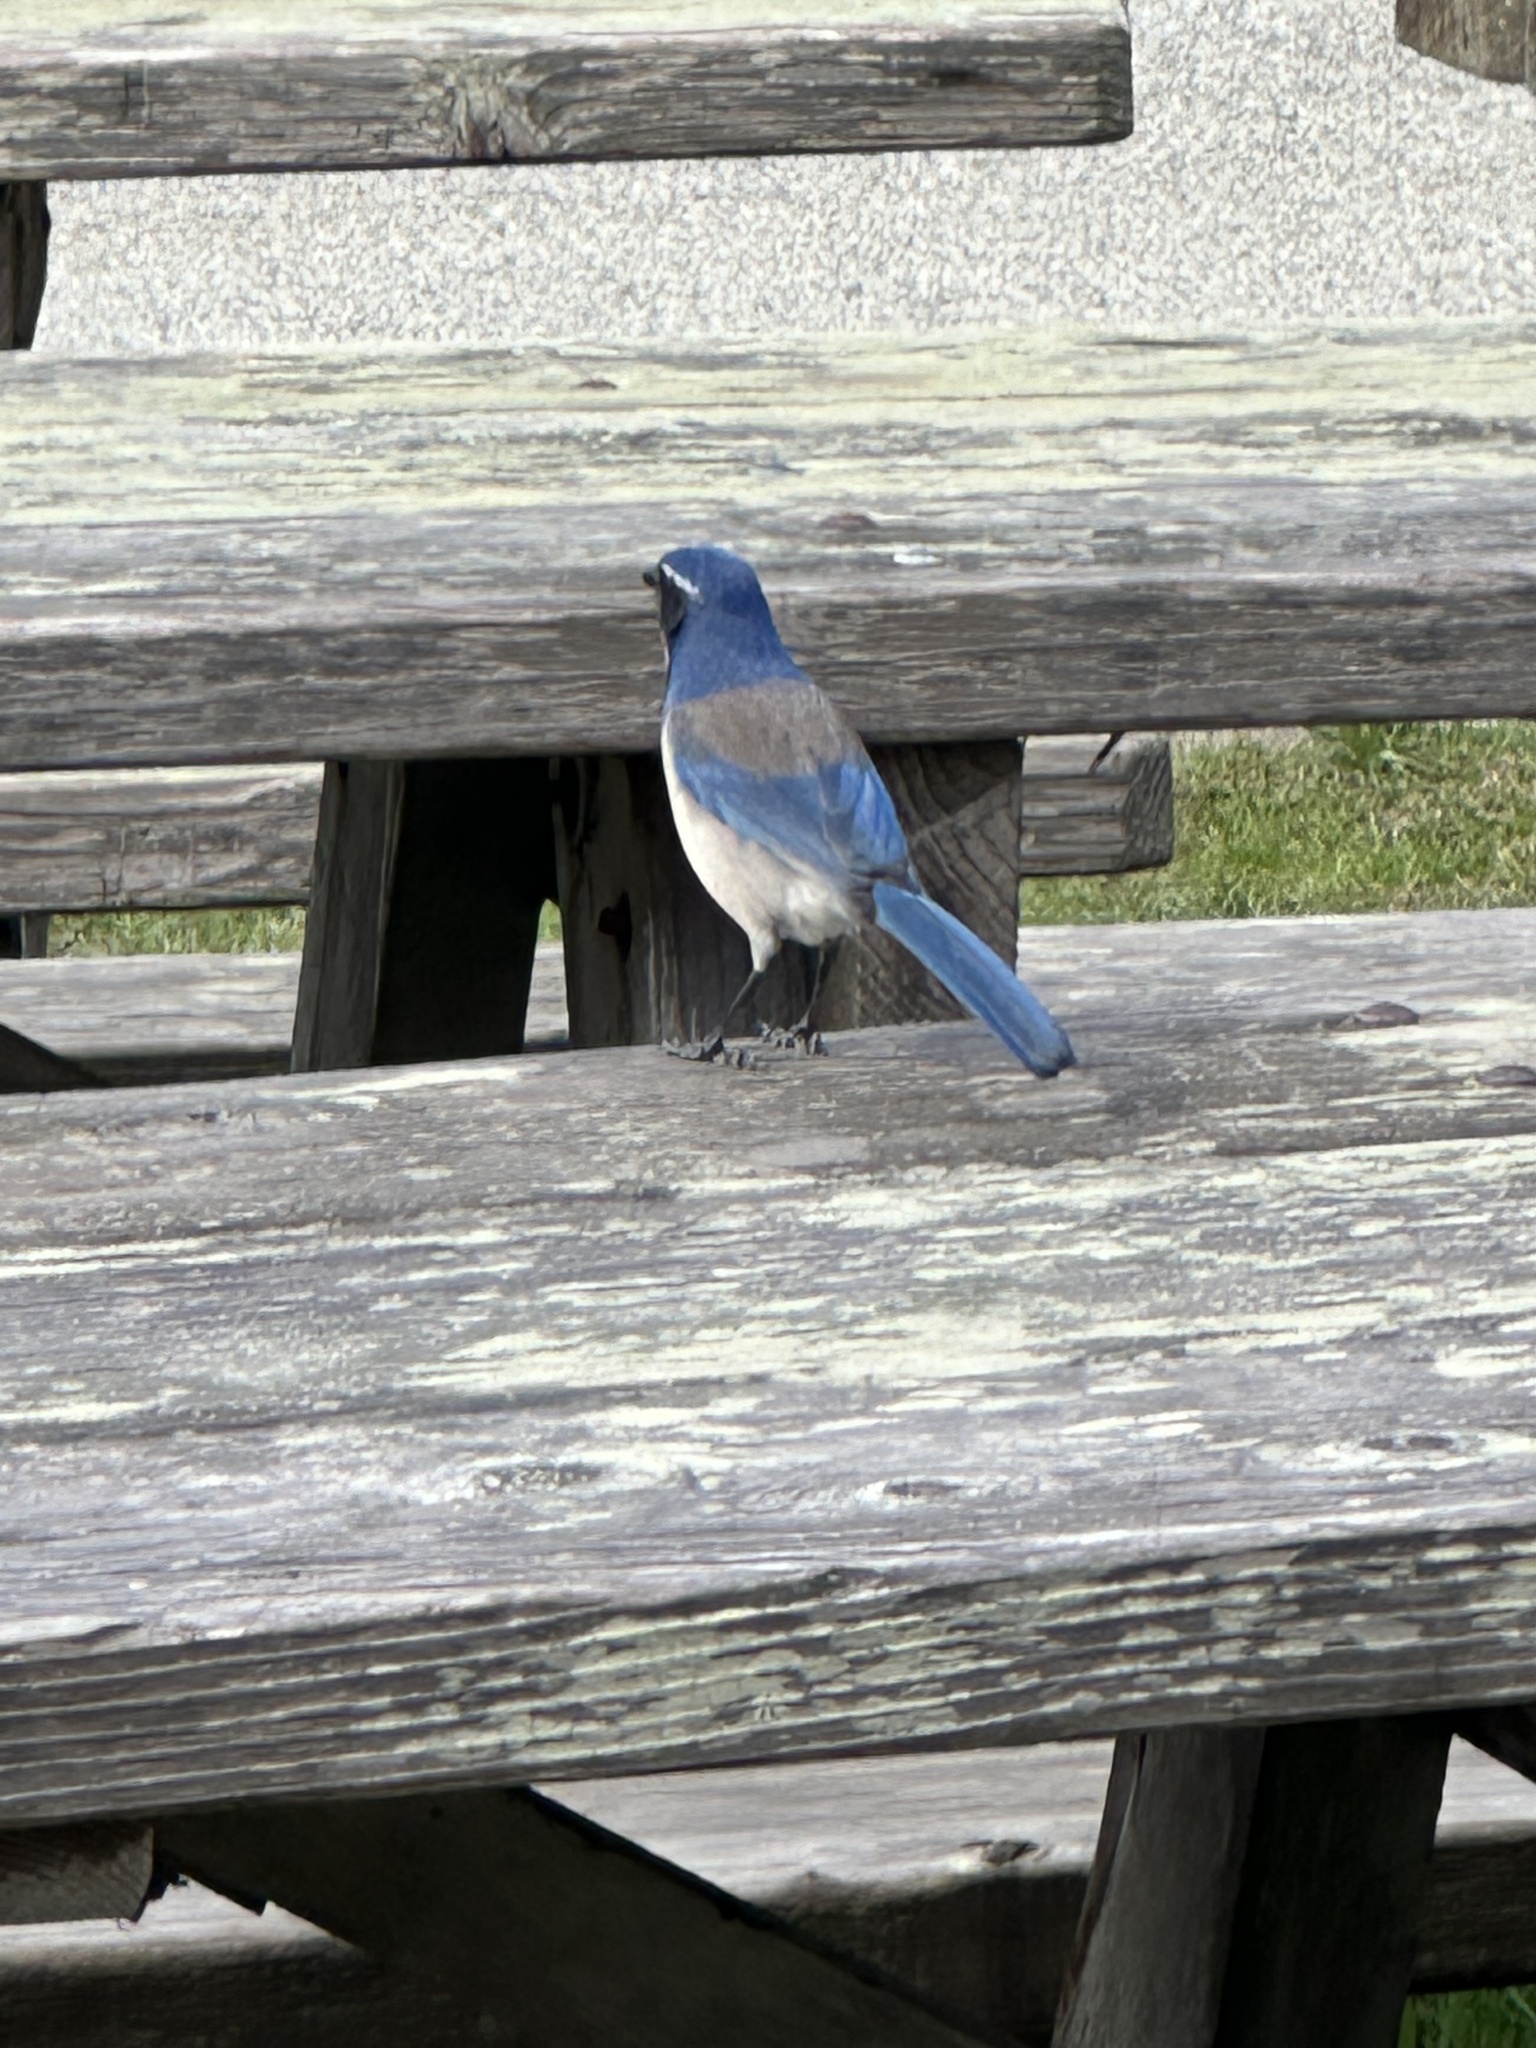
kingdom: Animalia
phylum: Chordata
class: Aves
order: Passeriformes
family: Corvidae
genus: Aphelocoma
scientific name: Aphelocoma californica
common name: California scrub-jay
